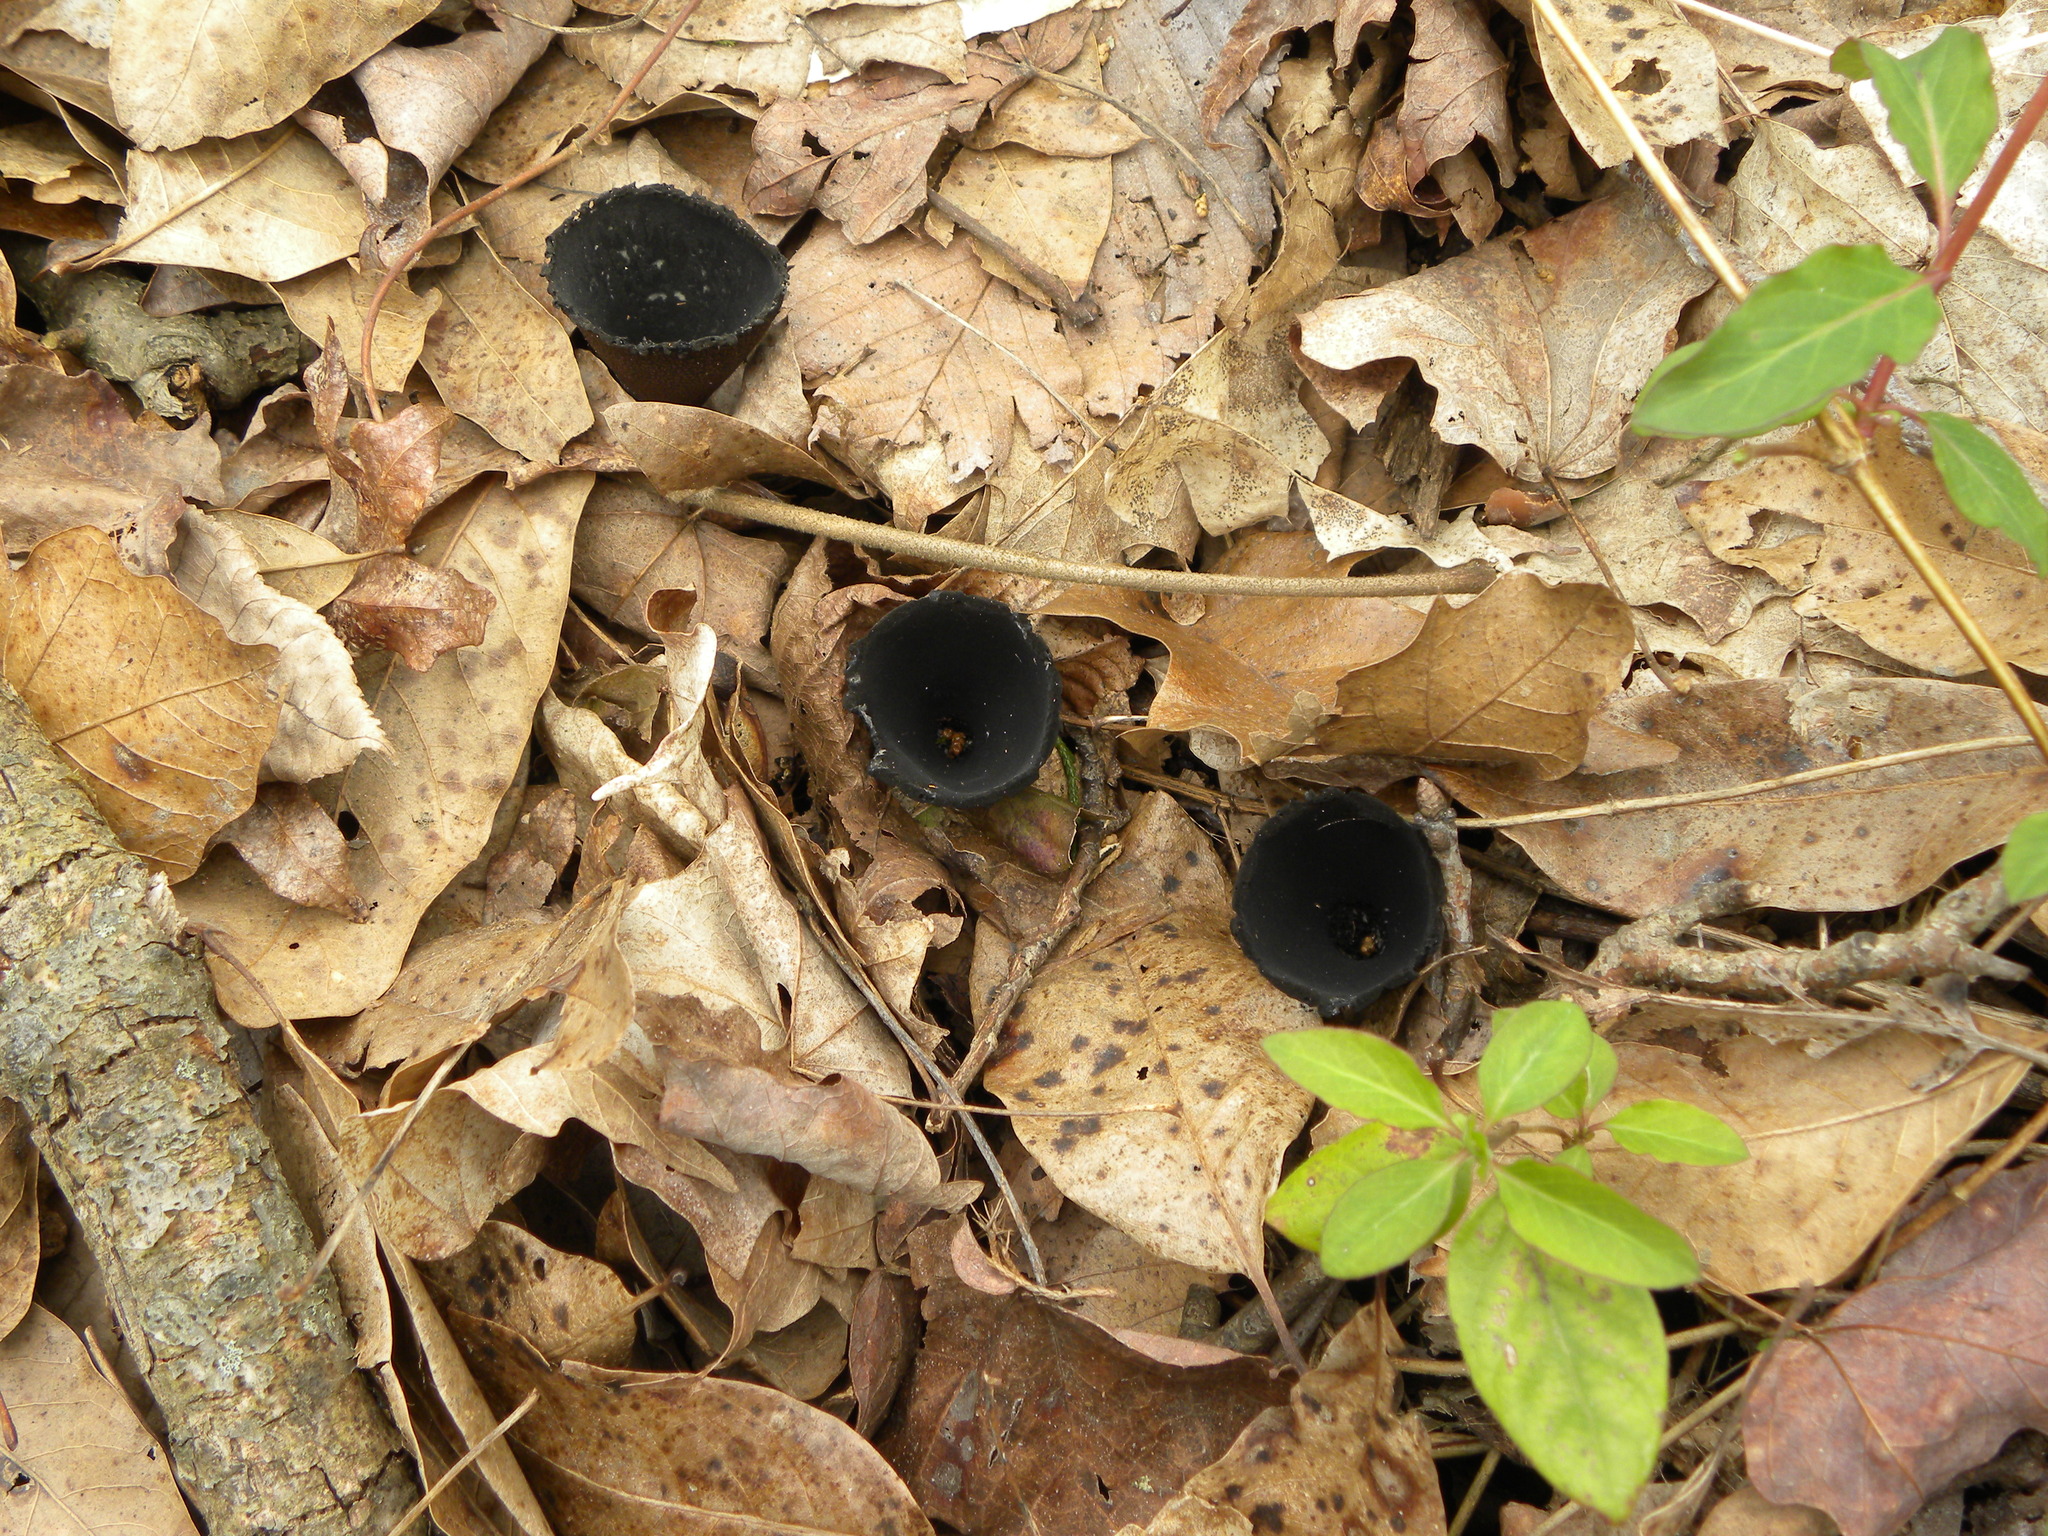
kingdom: Fungi
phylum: Ascomycota
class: Pezizomycetes
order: Pezizales
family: Sarcosomataceae
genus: Urnula
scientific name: Urnula craterium
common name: Devil's urn
